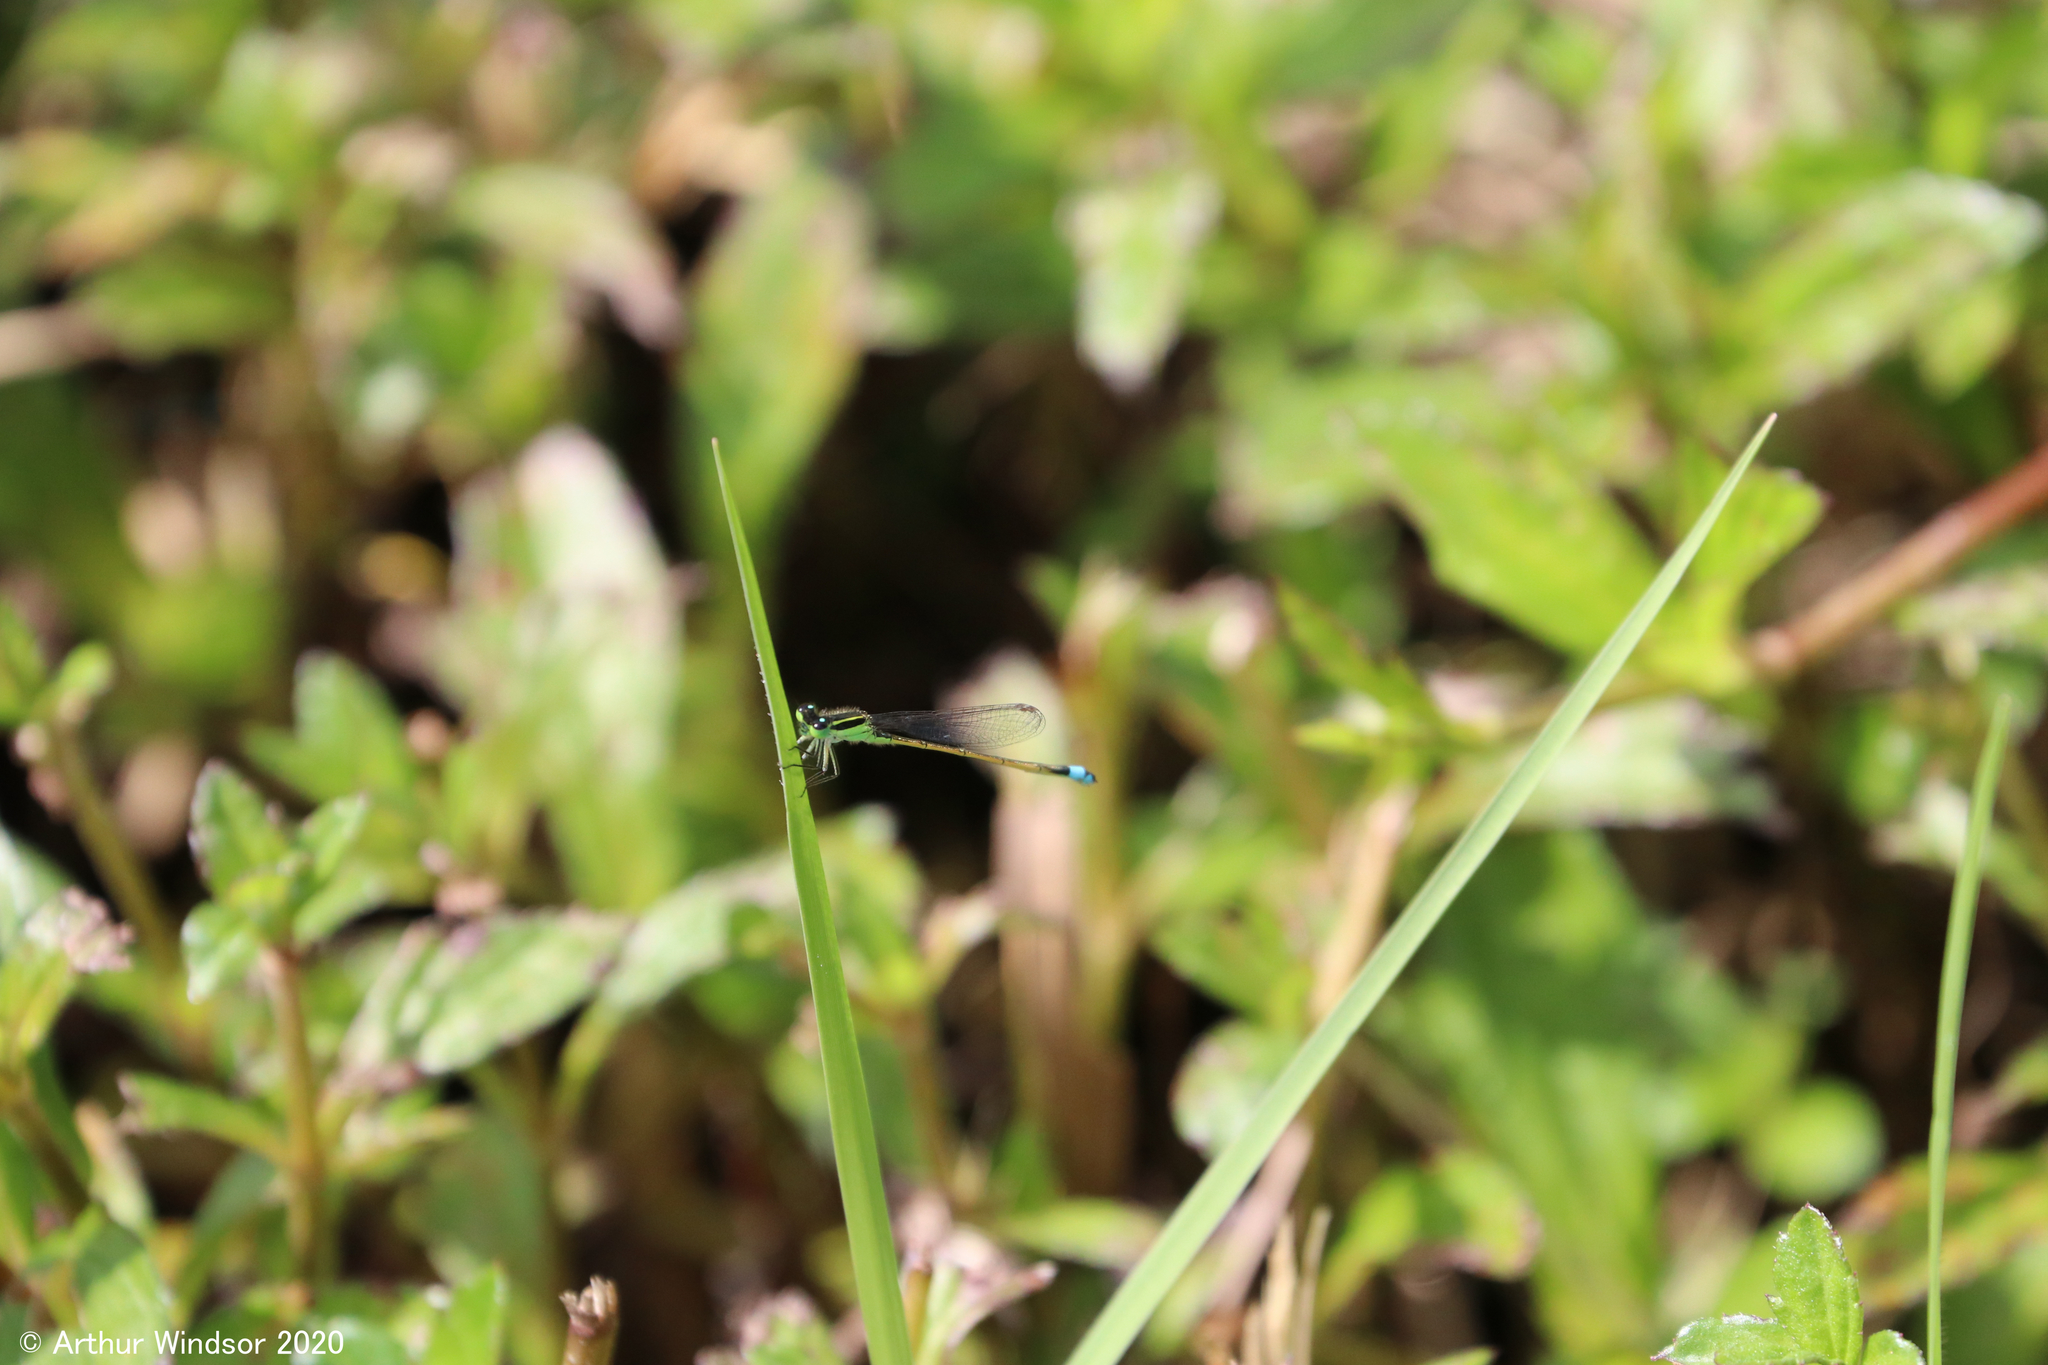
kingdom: Animalia
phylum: Arthropoda
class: Insecta
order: Odonata
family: Coenagrionidae
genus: Ischnura
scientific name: Ischnura ramburii
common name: Rambur's forktail
